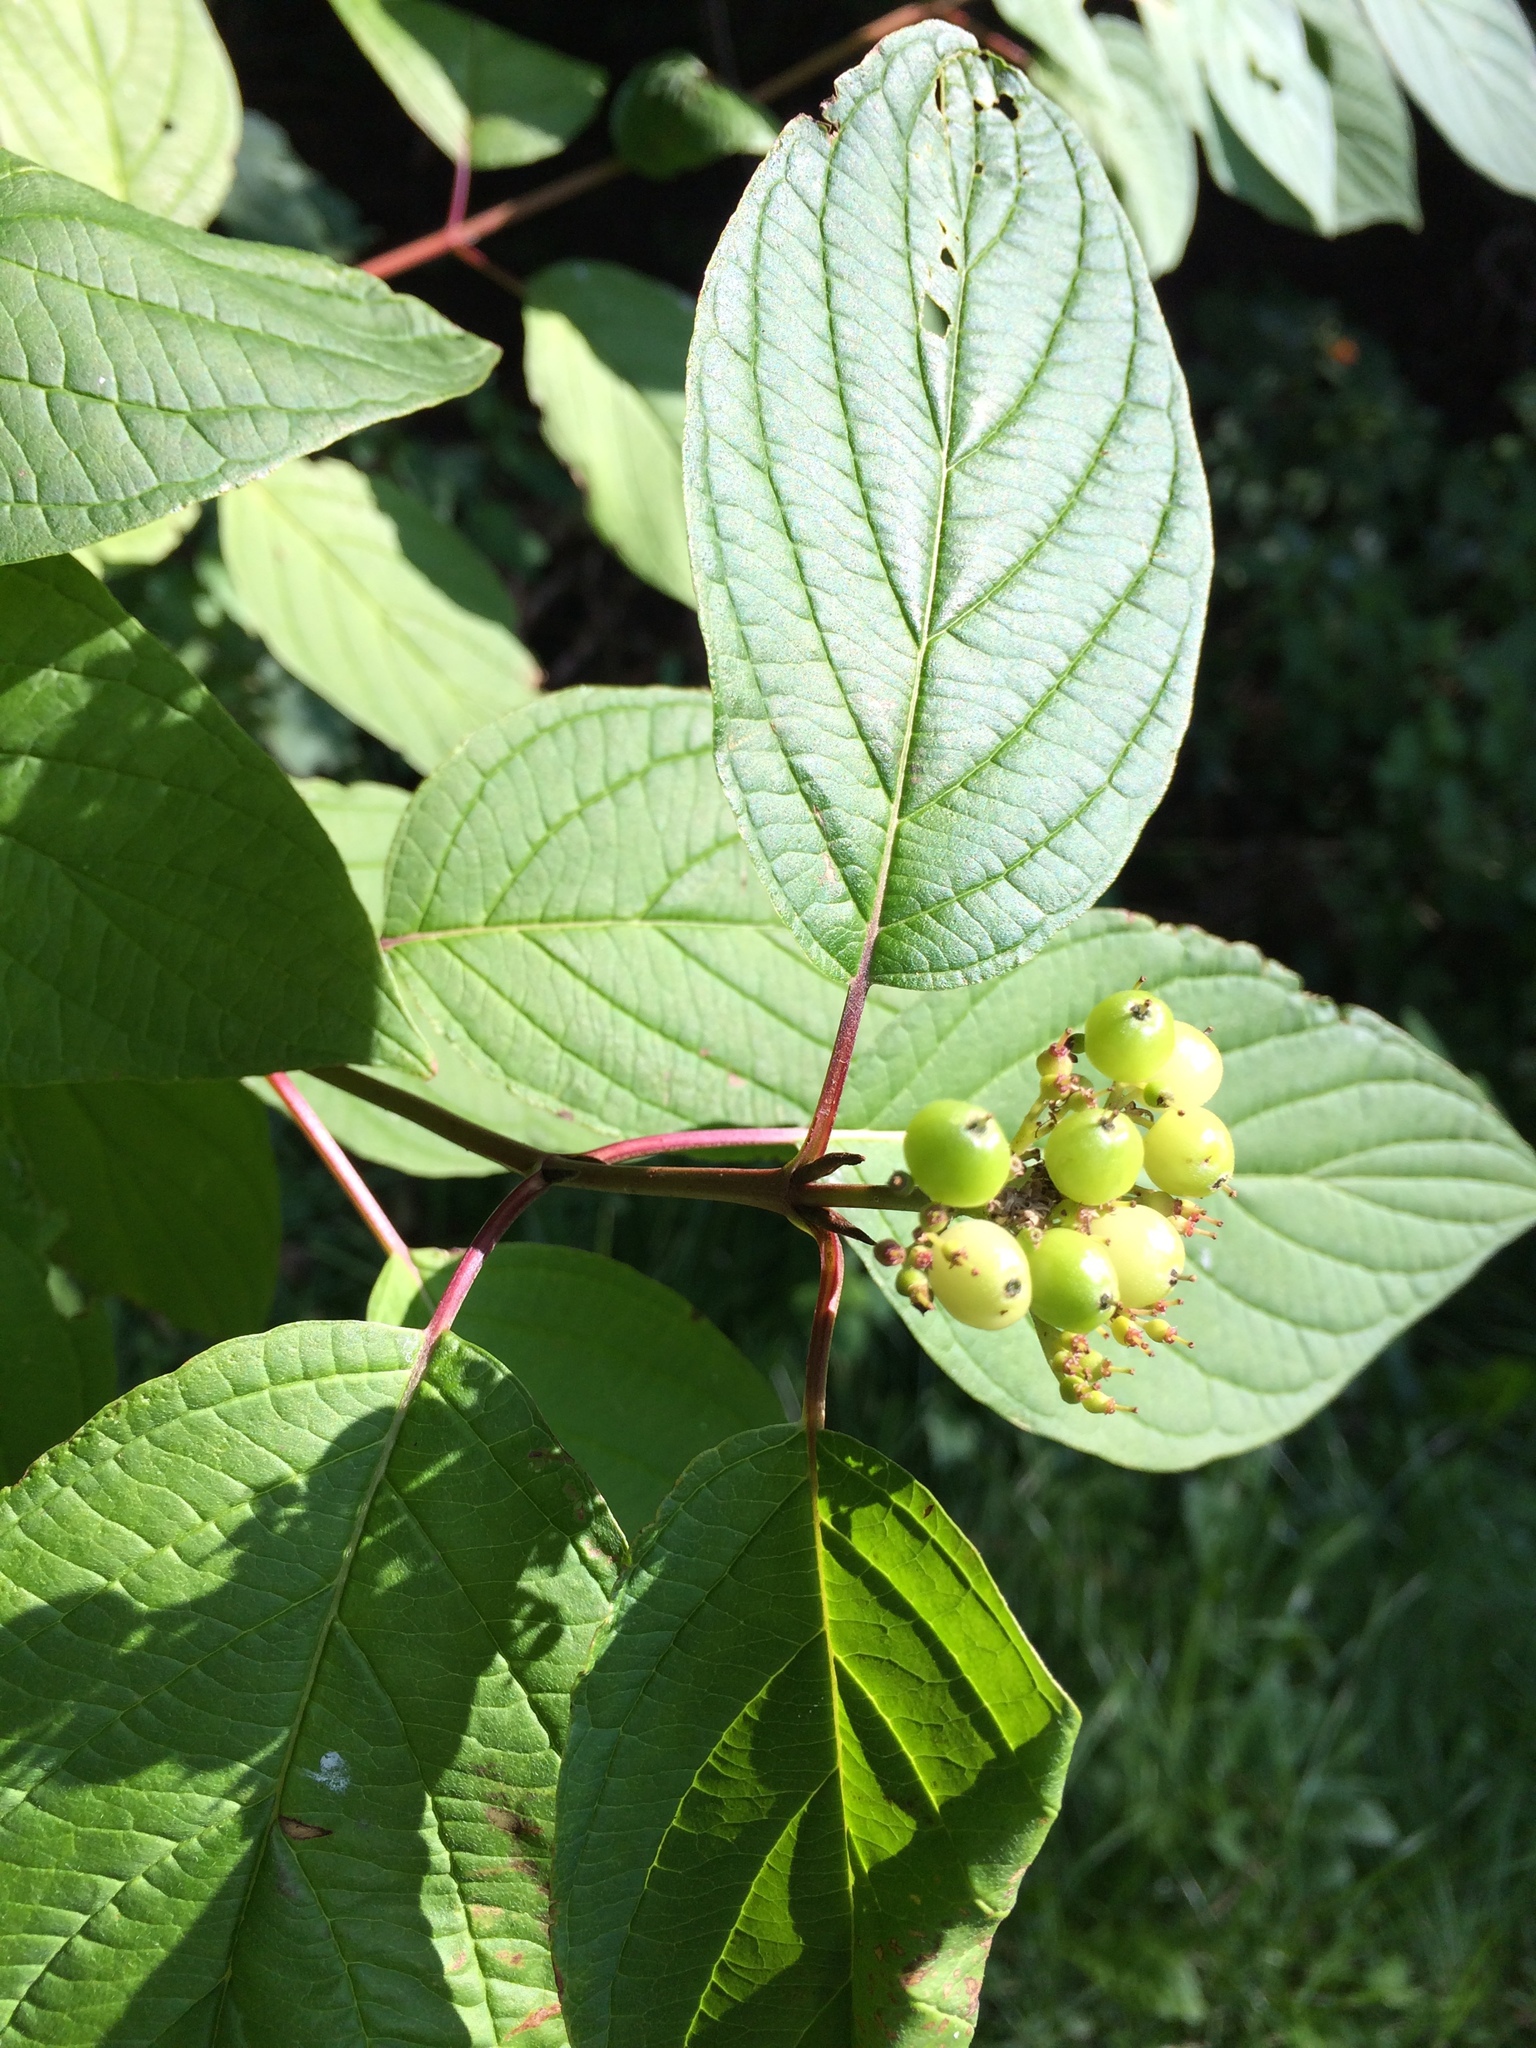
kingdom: Plantae
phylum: Tracheophyta
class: Magnoliopsida
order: Cornales
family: Cornaceae
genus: Cornus
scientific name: Cornus sericea
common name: Red-osier dogwood
